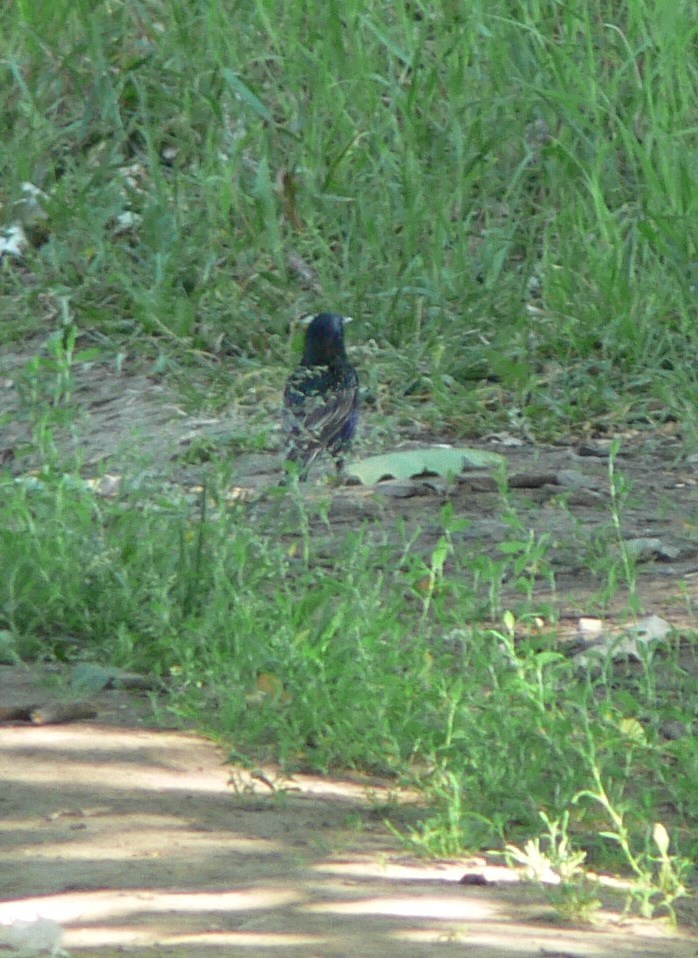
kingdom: Animalia
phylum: Chordata
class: Aves
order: Passeriformes
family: Sturnidae
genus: Sturnus
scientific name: Sturnus vulgaris
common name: Common starling
